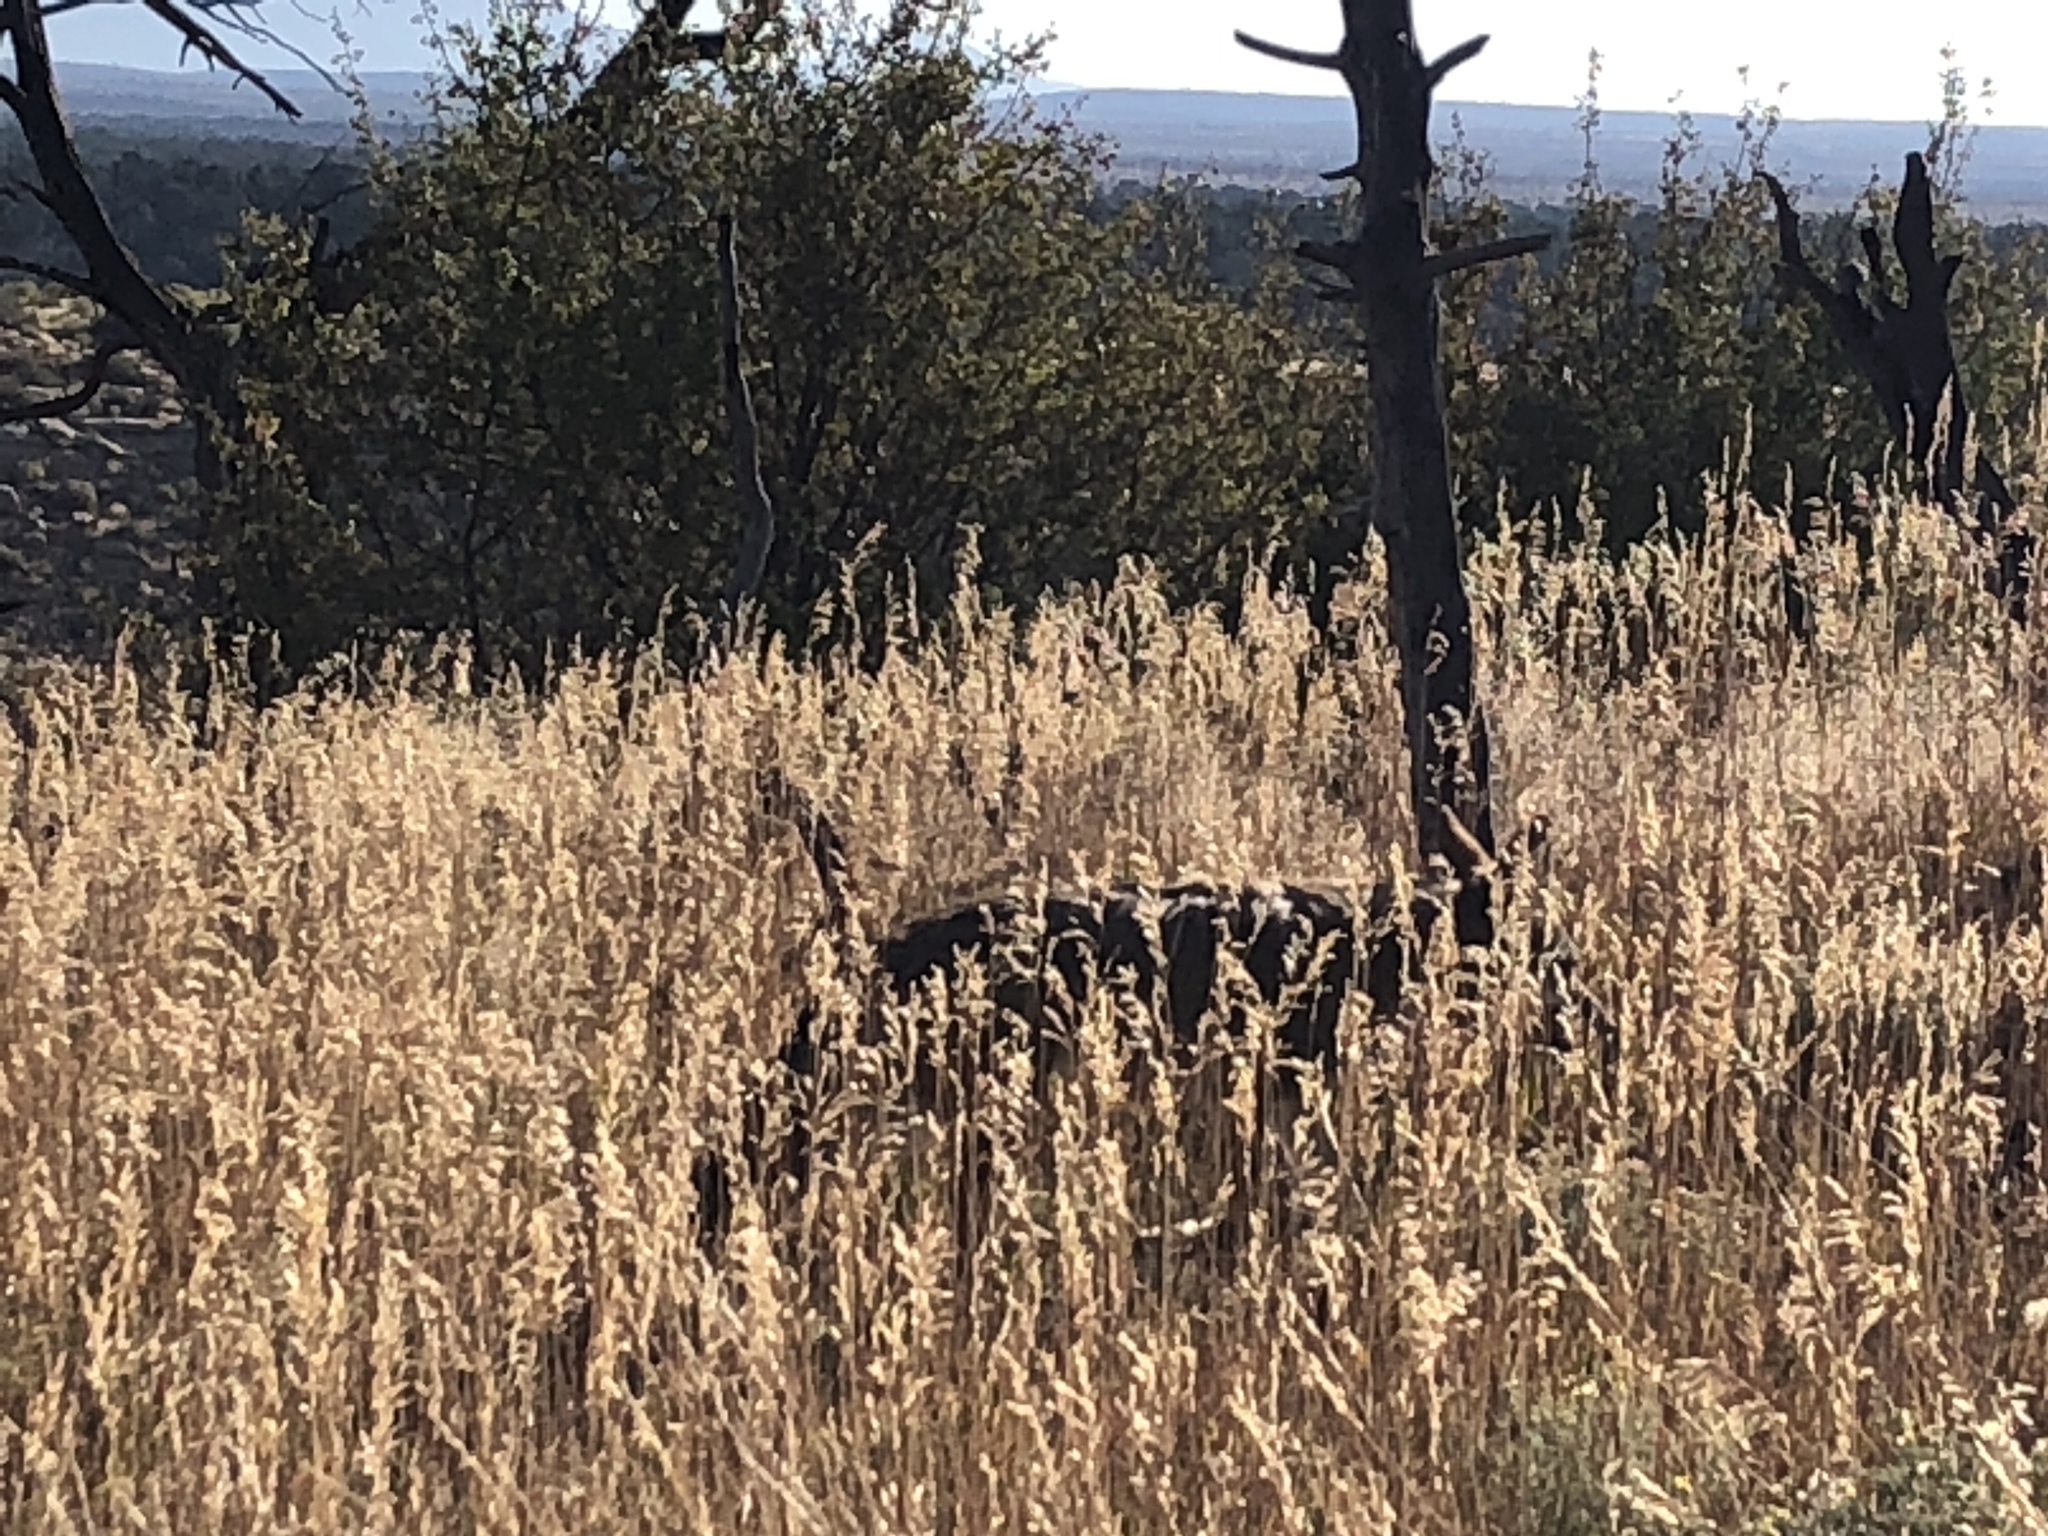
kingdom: Animalia
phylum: Chordata
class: Mammalia
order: Carnivora
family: Canidae
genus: Canis
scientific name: Canis latrans
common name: Coyote
